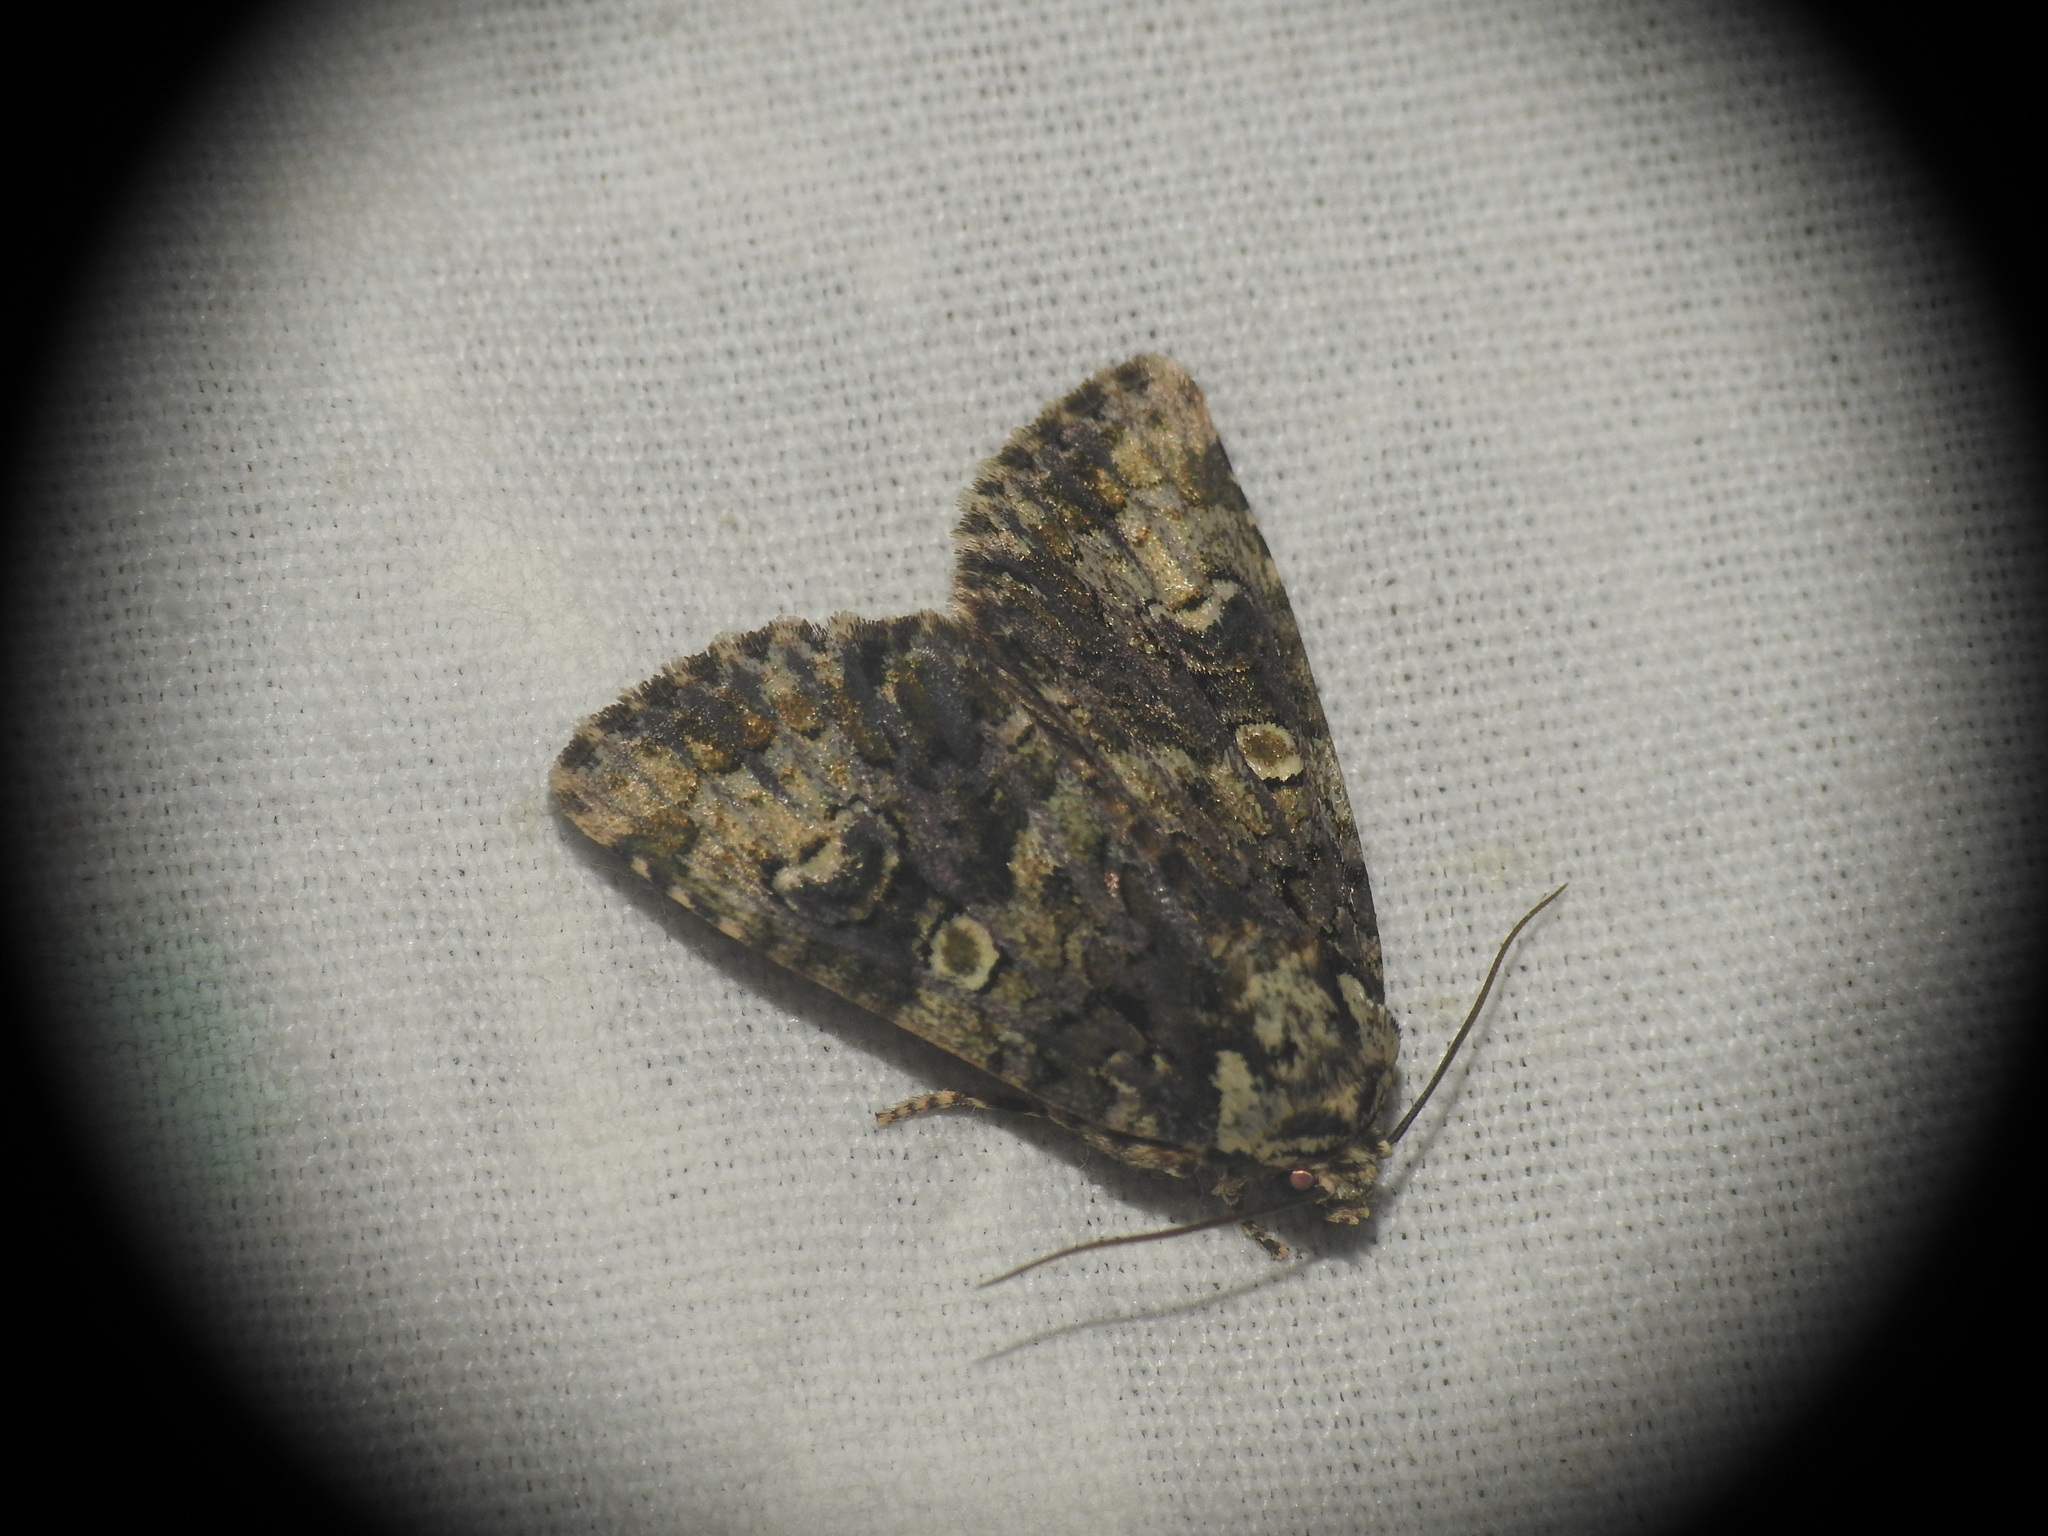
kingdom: Animalia
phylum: Arthropoda
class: Insecta
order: Lepidoptera
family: Noctuidae
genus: Craniophora
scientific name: Craniophora ligustri
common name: Coronet
